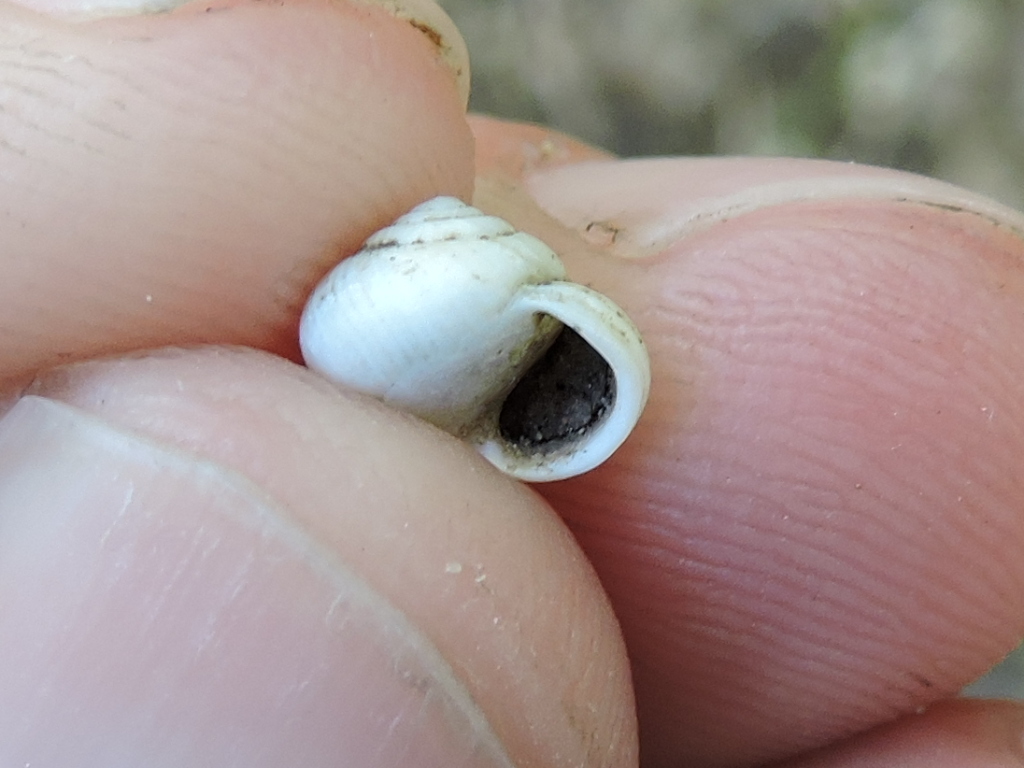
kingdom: Animalia
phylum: Mollusca
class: Gastropoda
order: Cycloneritida
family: Helicinidae
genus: Helicina
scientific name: Helicina orbiculata
